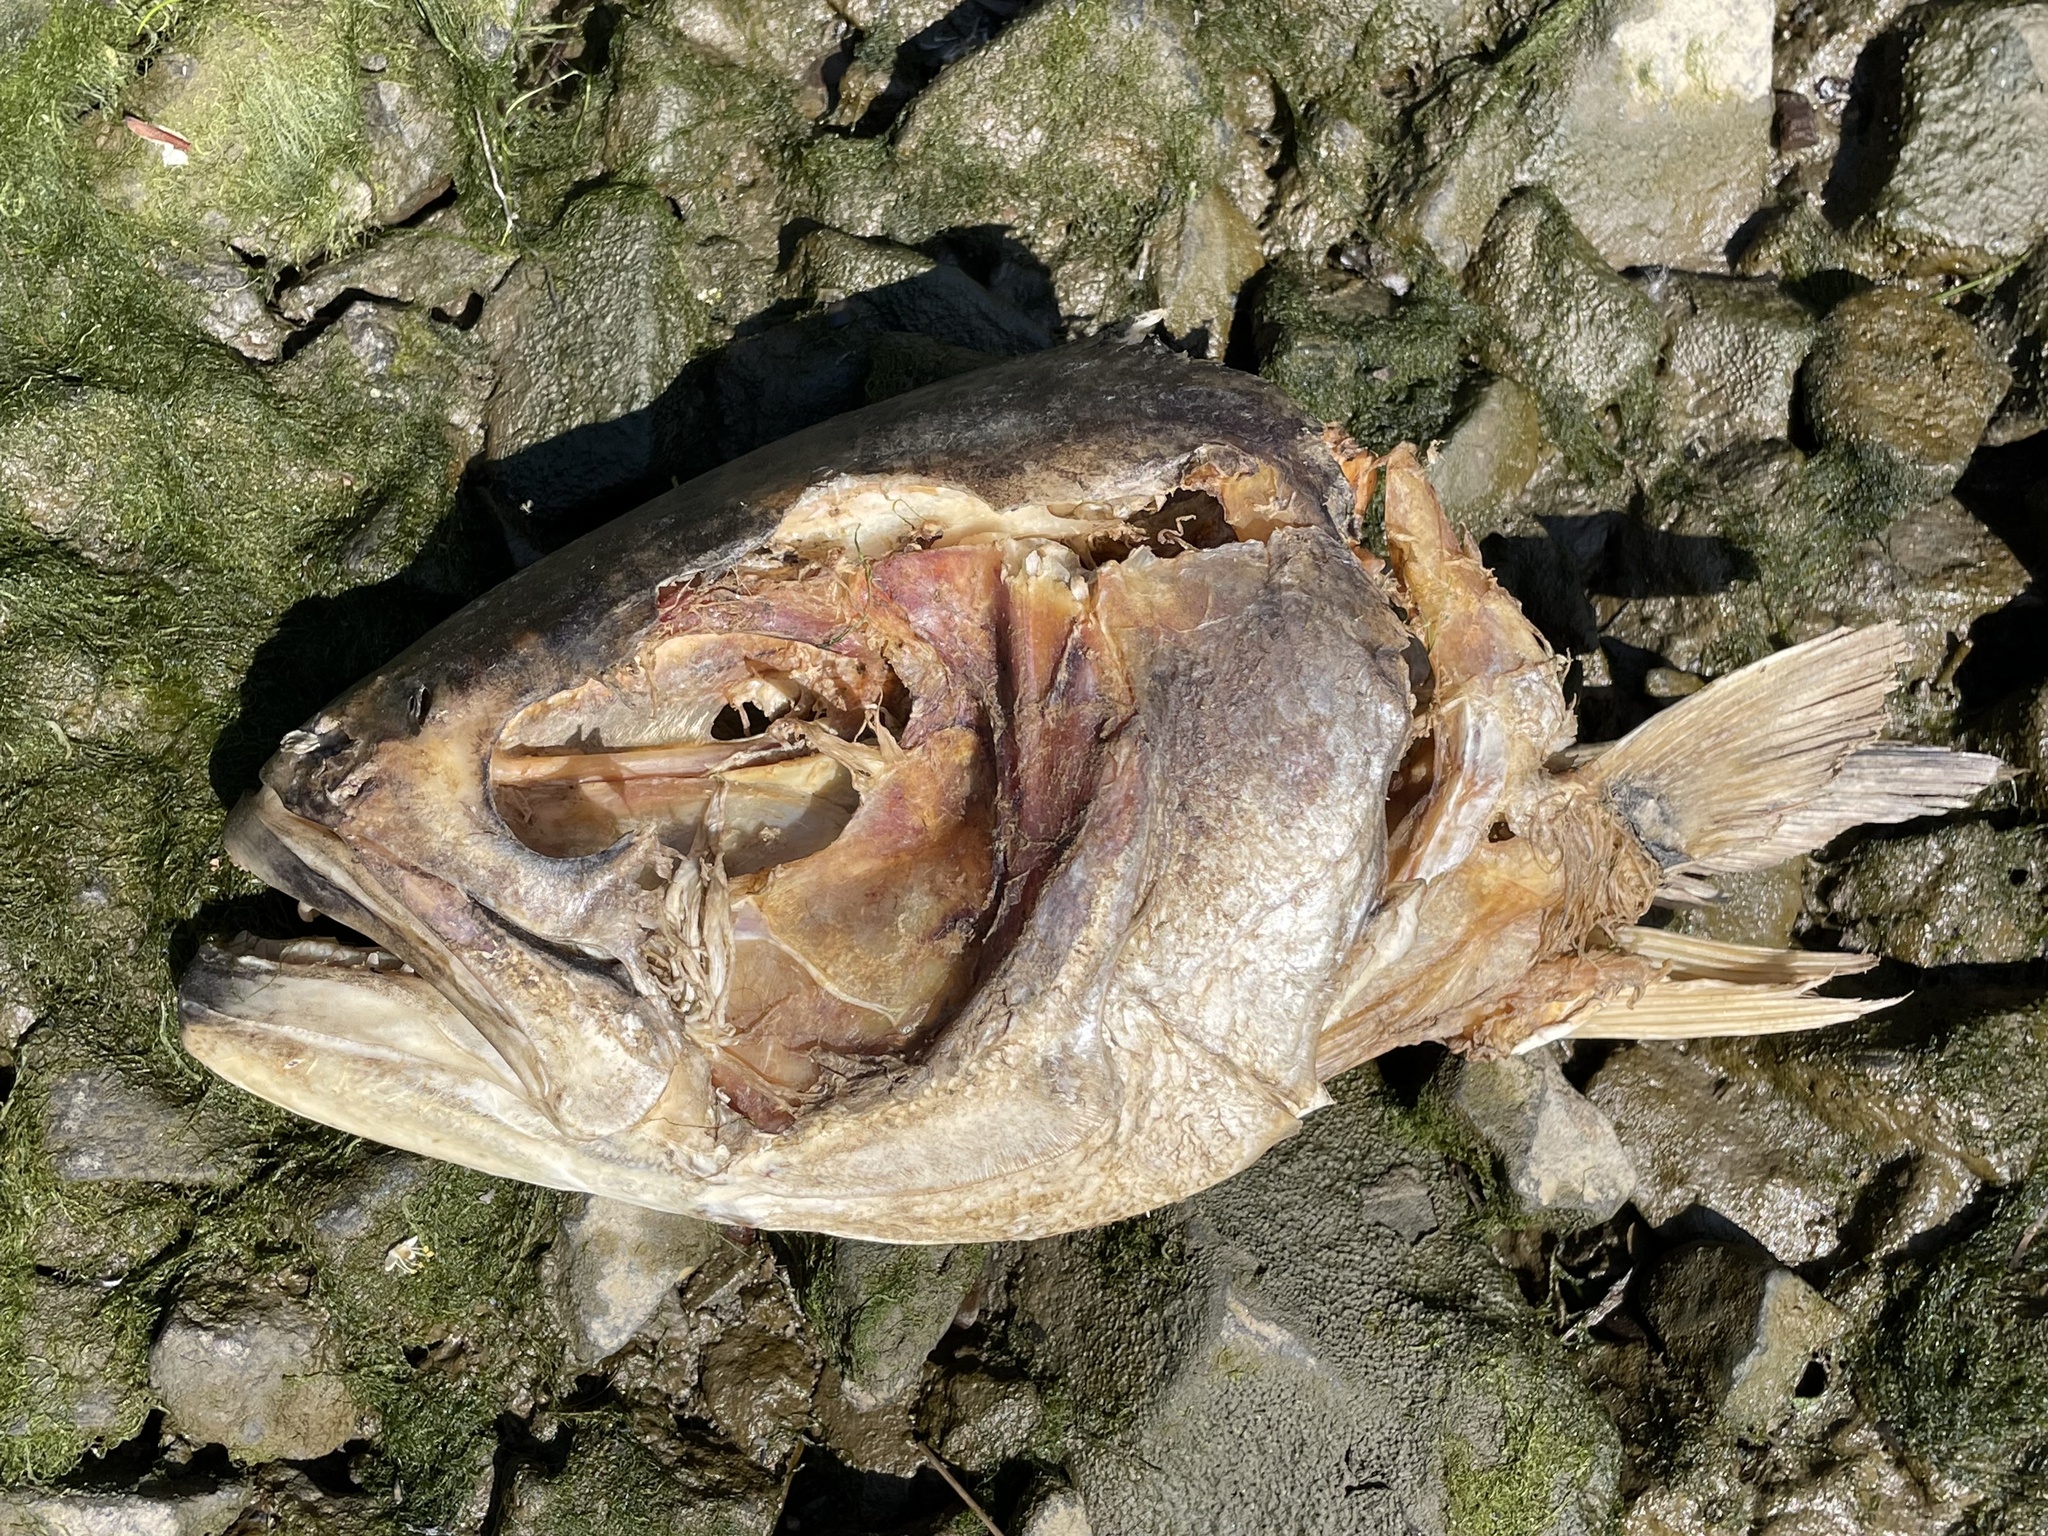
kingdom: Animalia
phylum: Chordata
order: Perciformes
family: Pomatomidae
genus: Pomatomus
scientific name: Pomatomus saltatrix
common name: Bluefish
